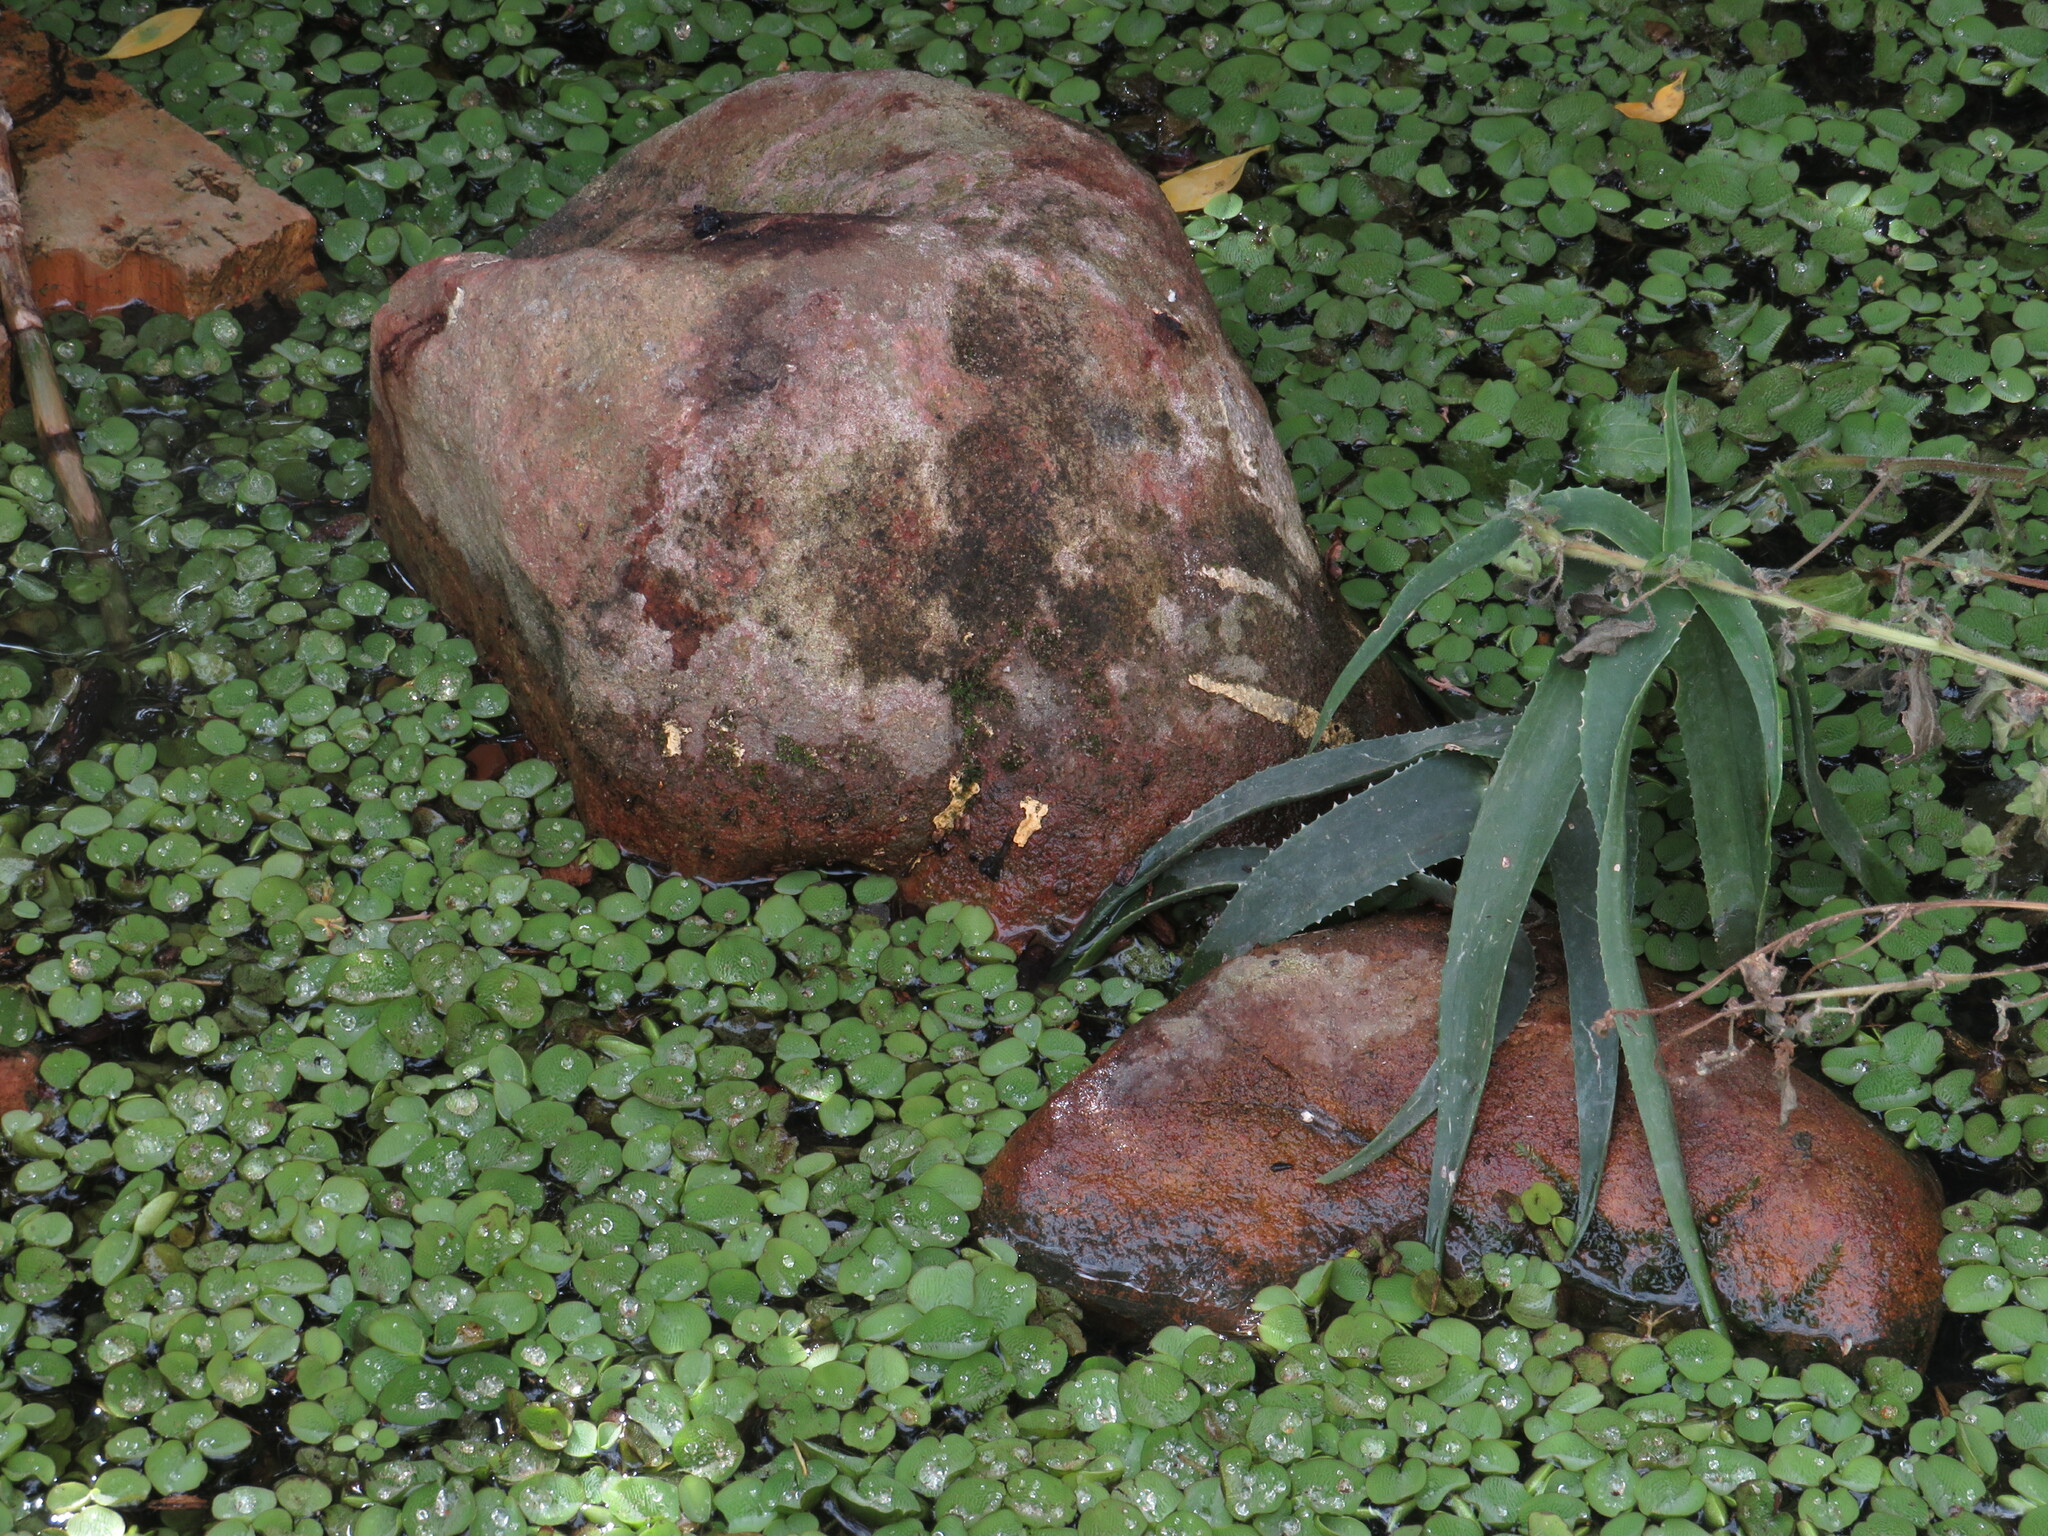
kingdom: Plantae
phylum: Tracheophyta
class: Polypodiopsida
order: Salviniales
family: Salviniaceae
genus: Salvinia
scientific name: Salvinia molesta
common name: Kariba weed
